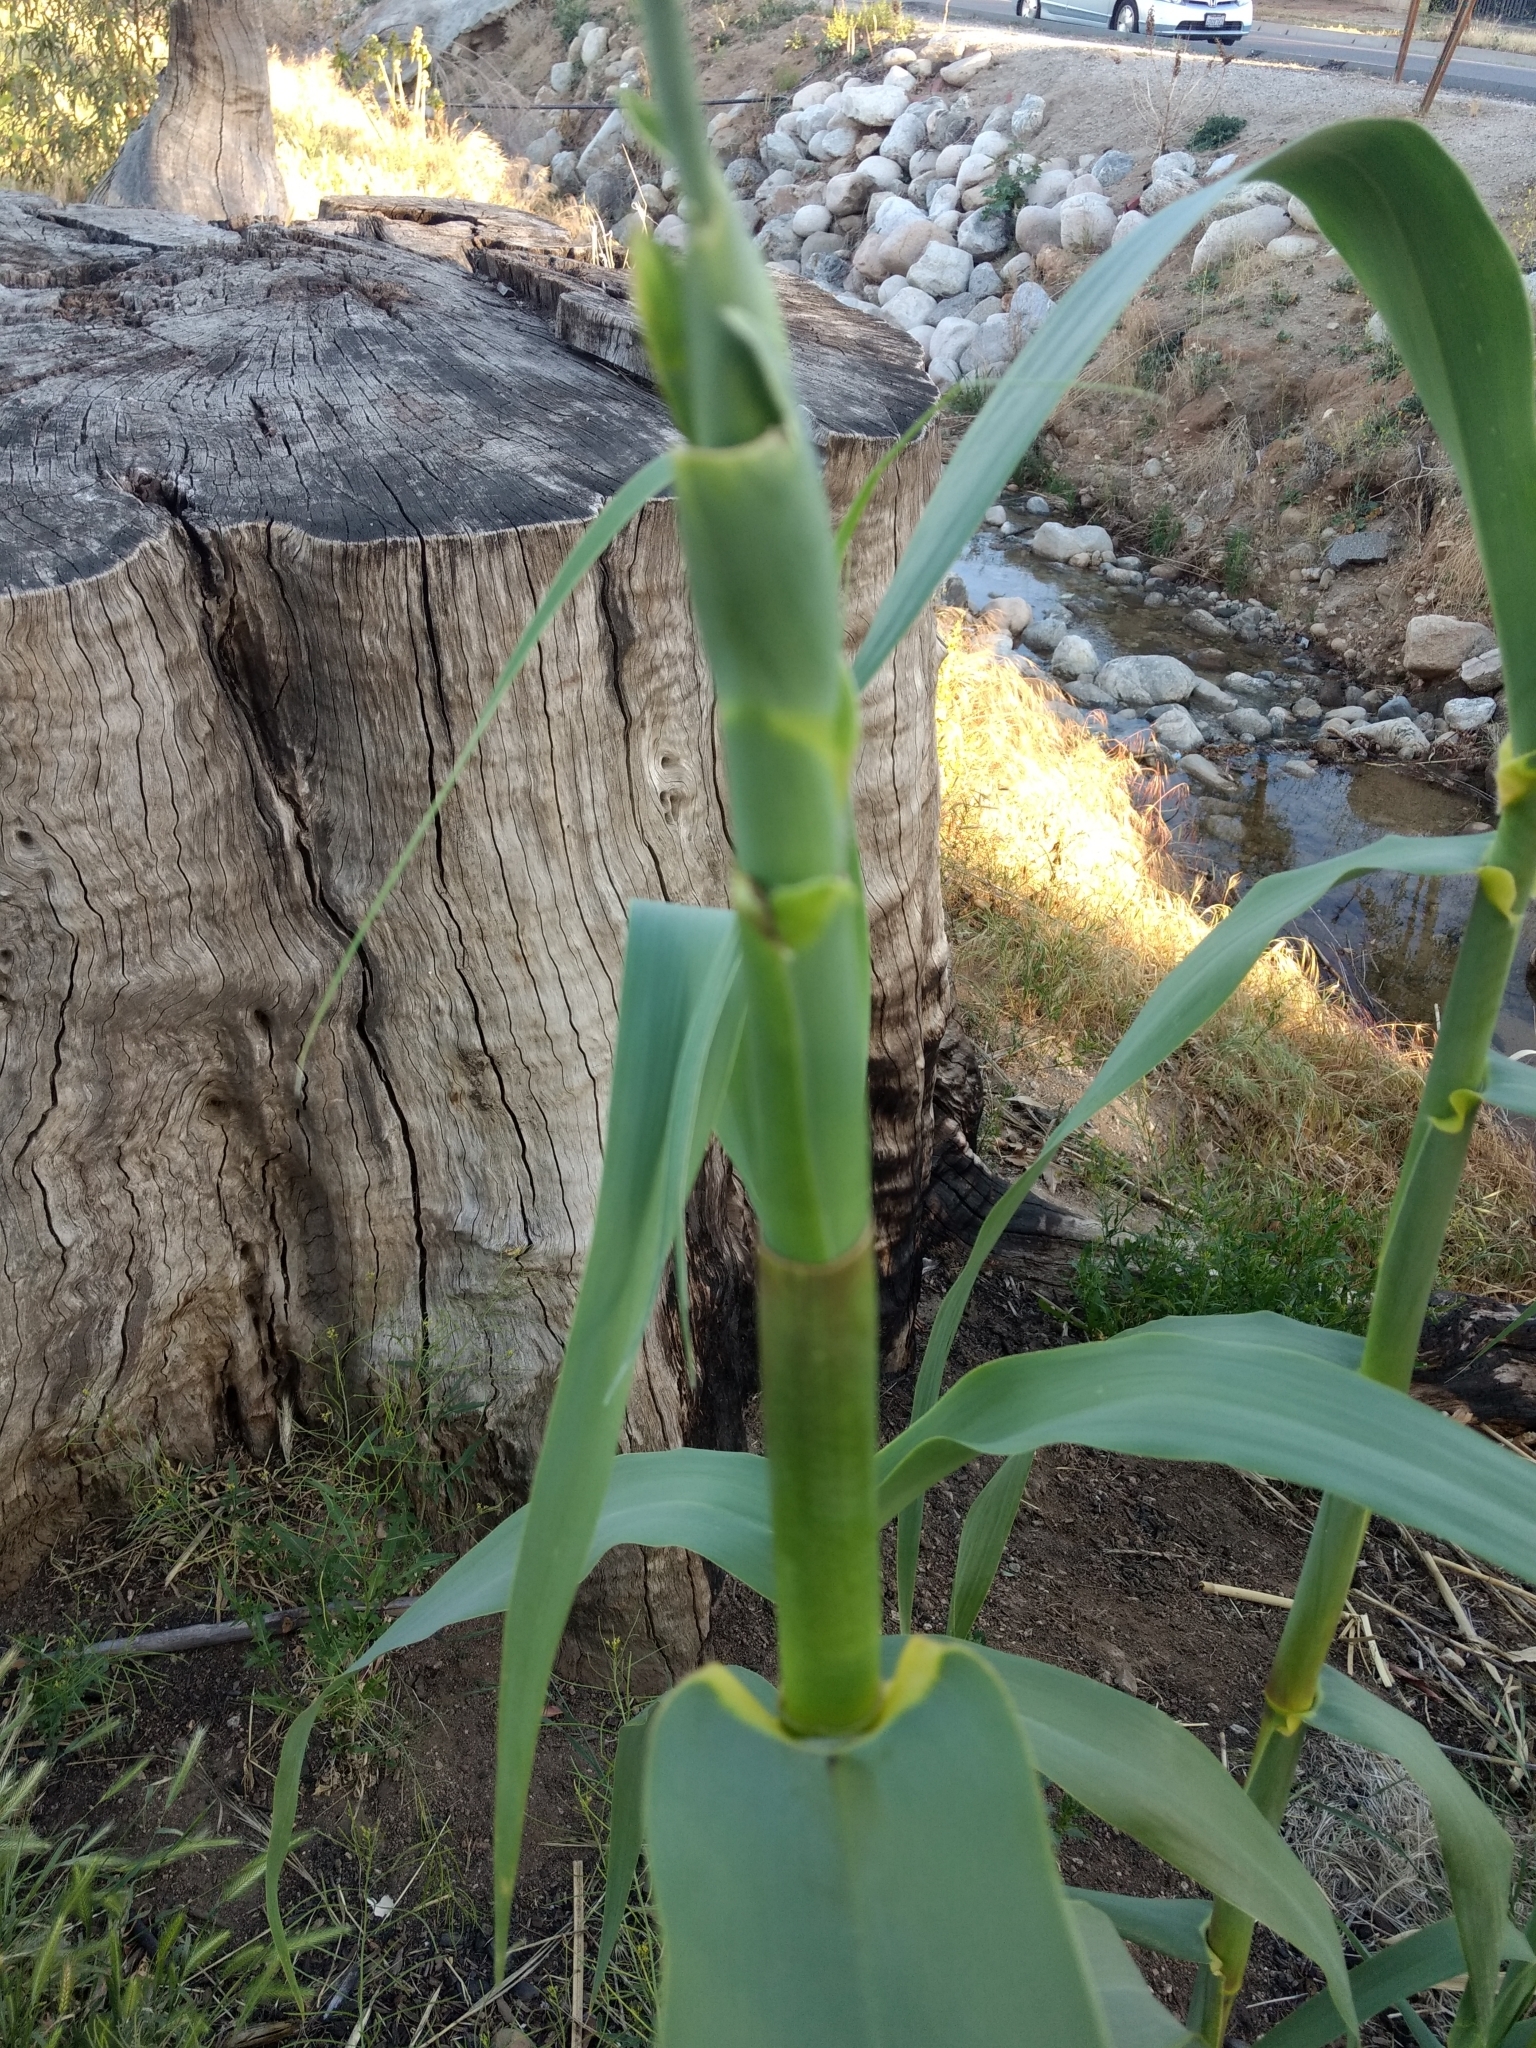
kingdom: Plantae
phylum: Tracheophyta
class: Liliopsida
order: Poales
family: Poaceae
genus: Arundo
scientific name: Arundo donax
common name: Giant reed
